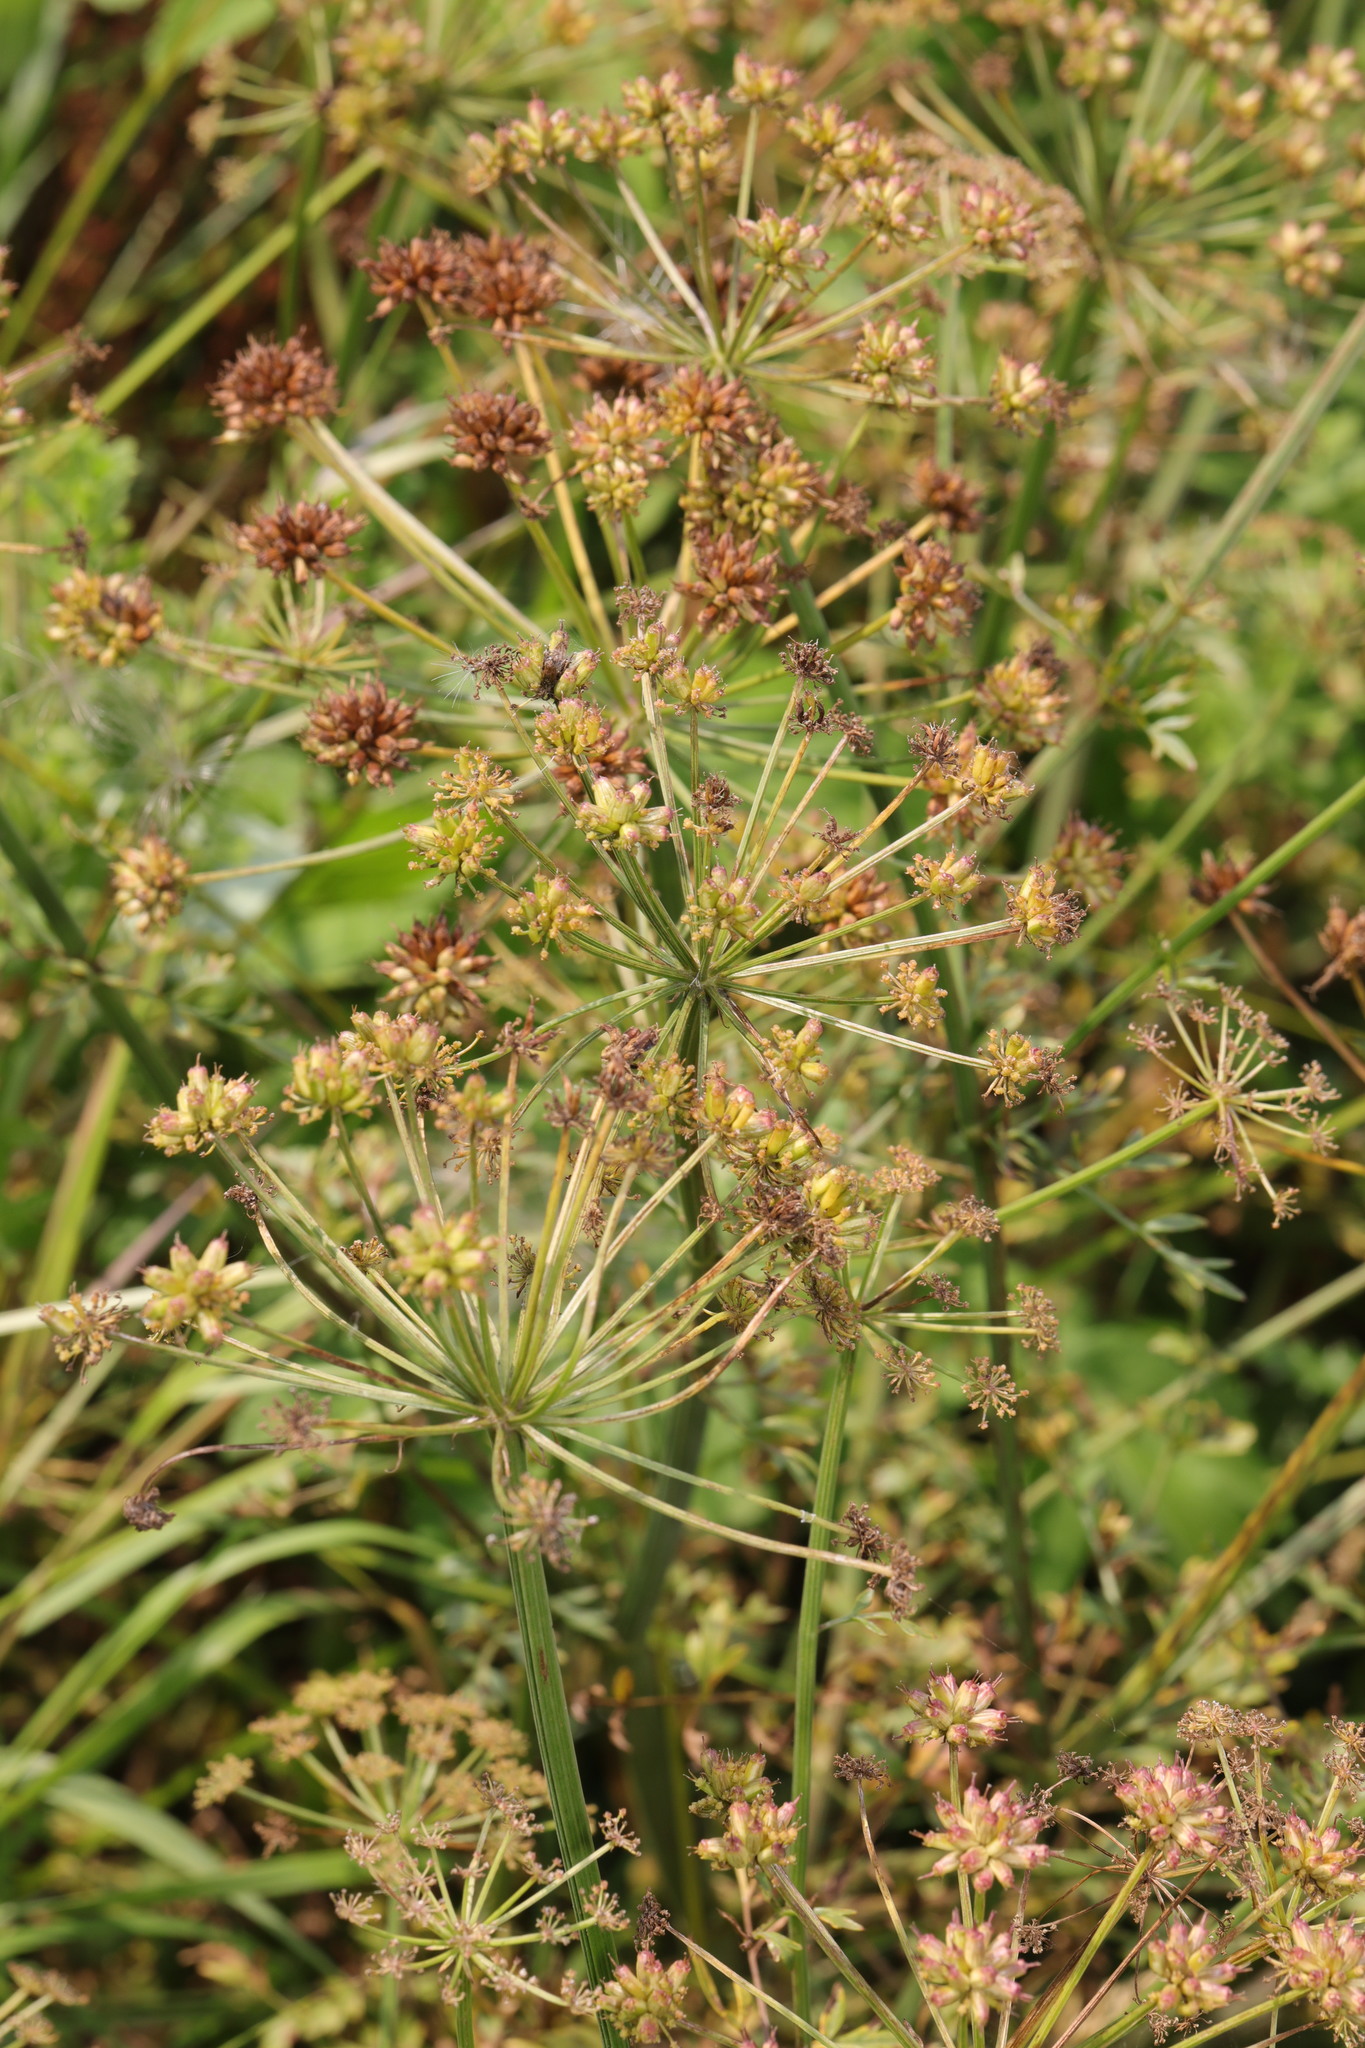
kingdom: Plantae
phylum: Tracheophyta
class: Magnoliopsida
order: Apiales
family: Apiaceae
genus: Oenanthe
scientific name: Oenanthe crocata
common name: Hemlock water-dropwort
